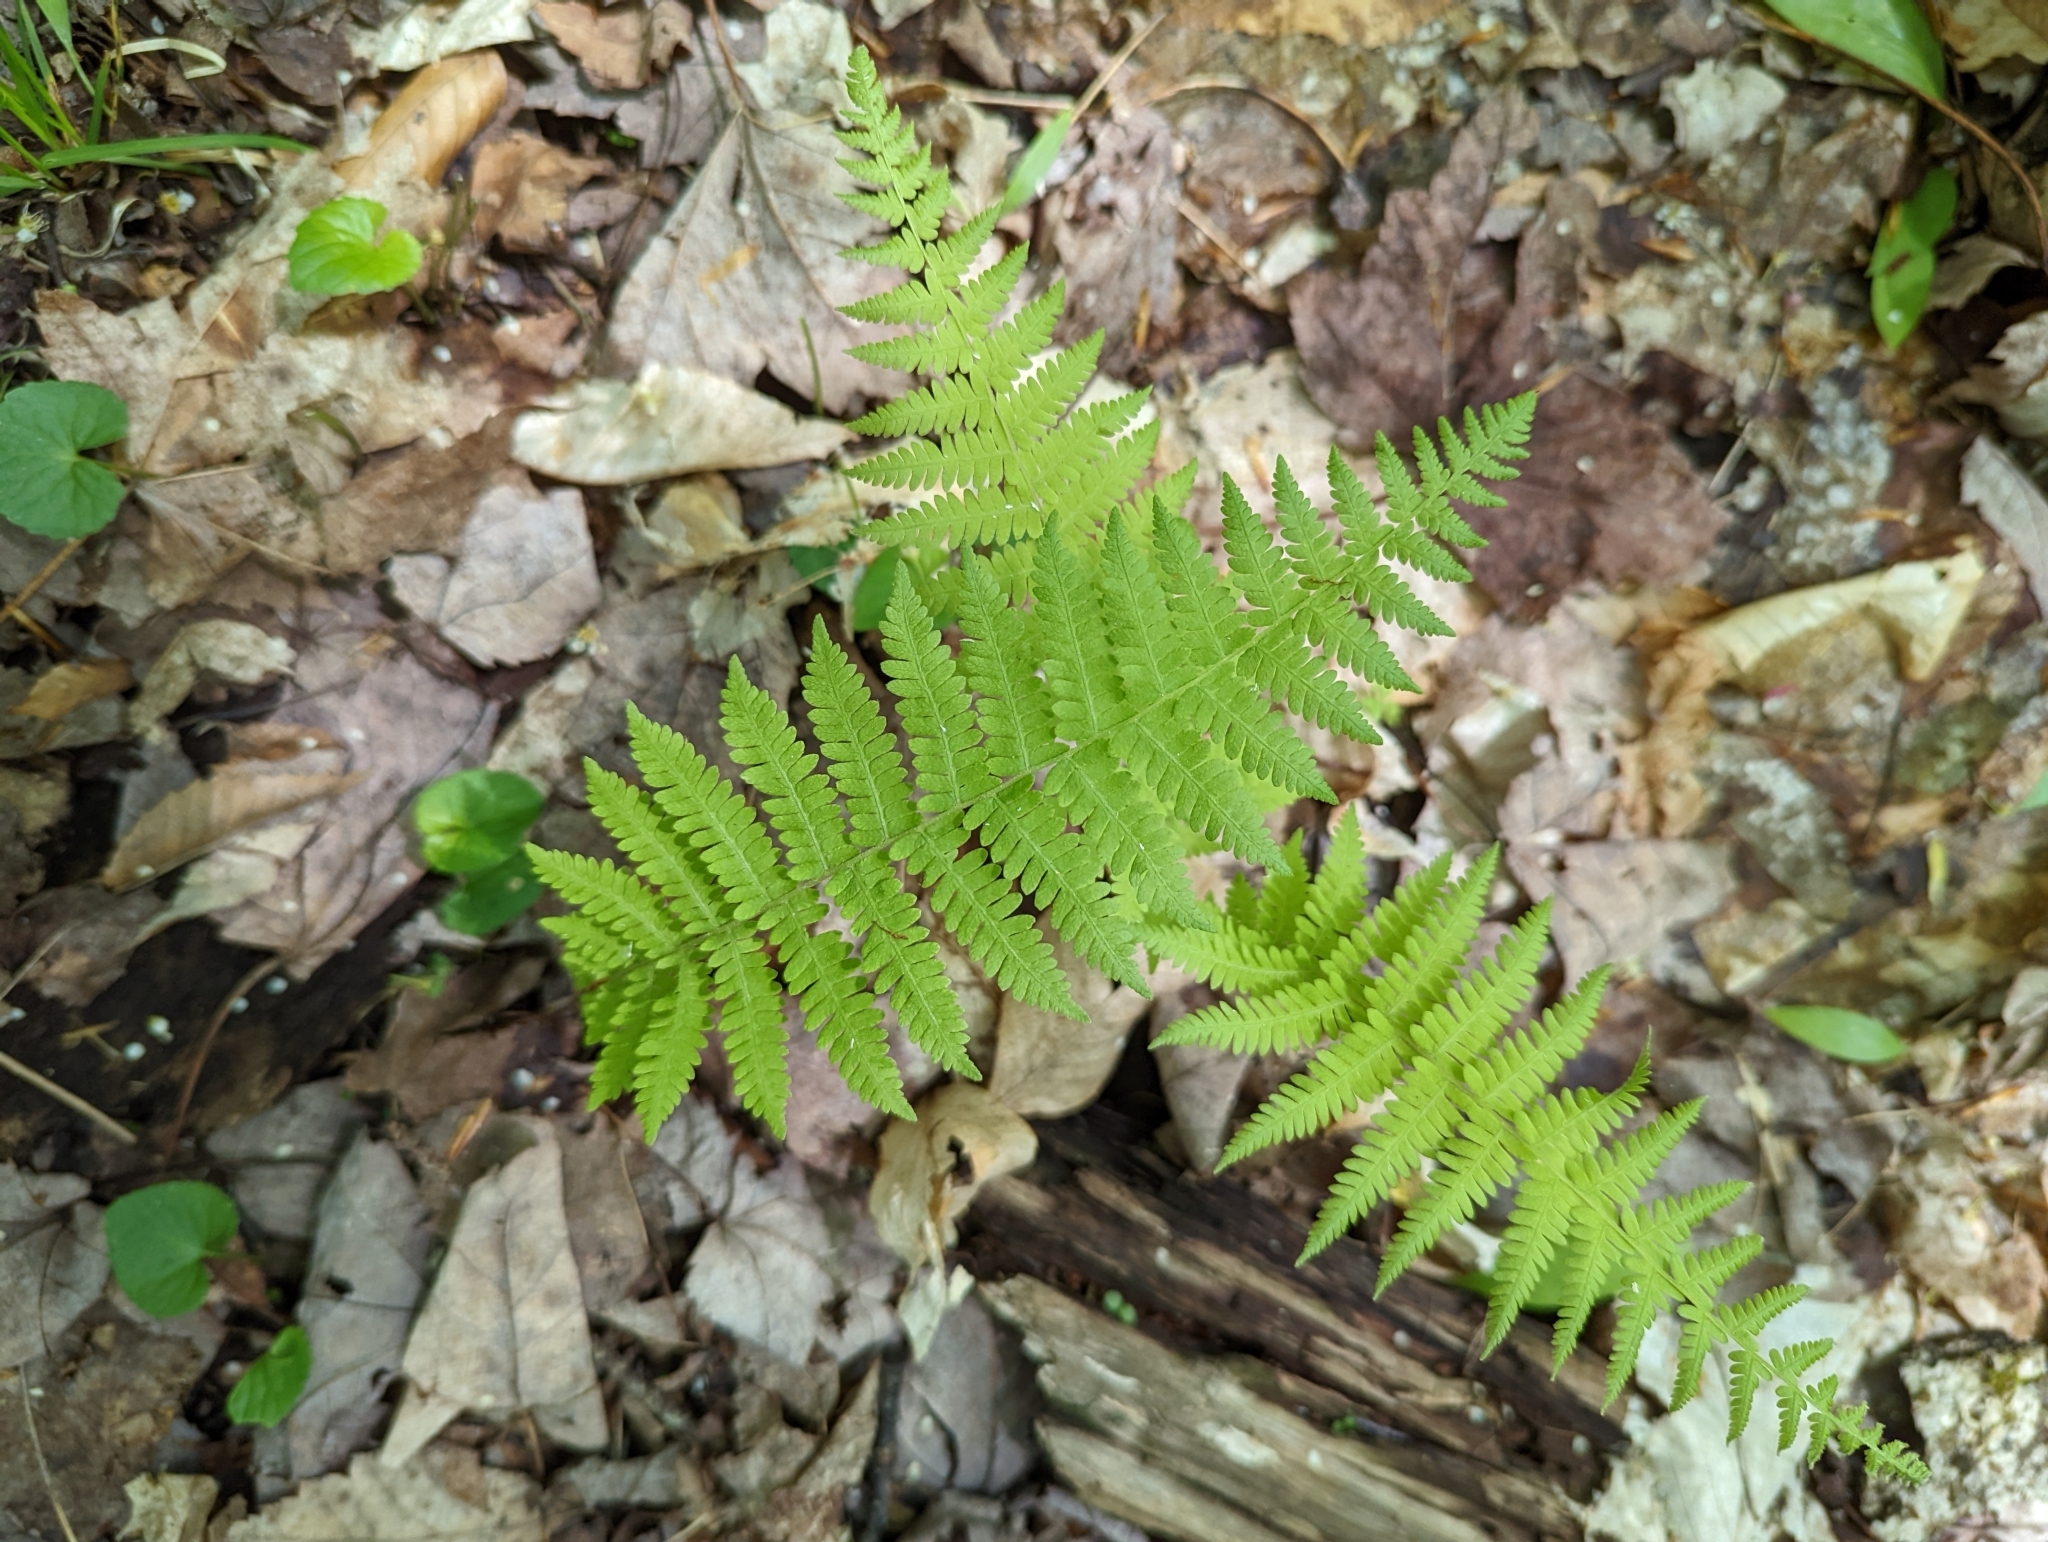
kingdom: Plantae
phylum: Tracheophyta
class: Polypodiopsida
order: Polypodiales
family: Thelypteridaceae
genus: Amauropelta
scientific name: Amauropelta noveboracensis
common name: New york fern
